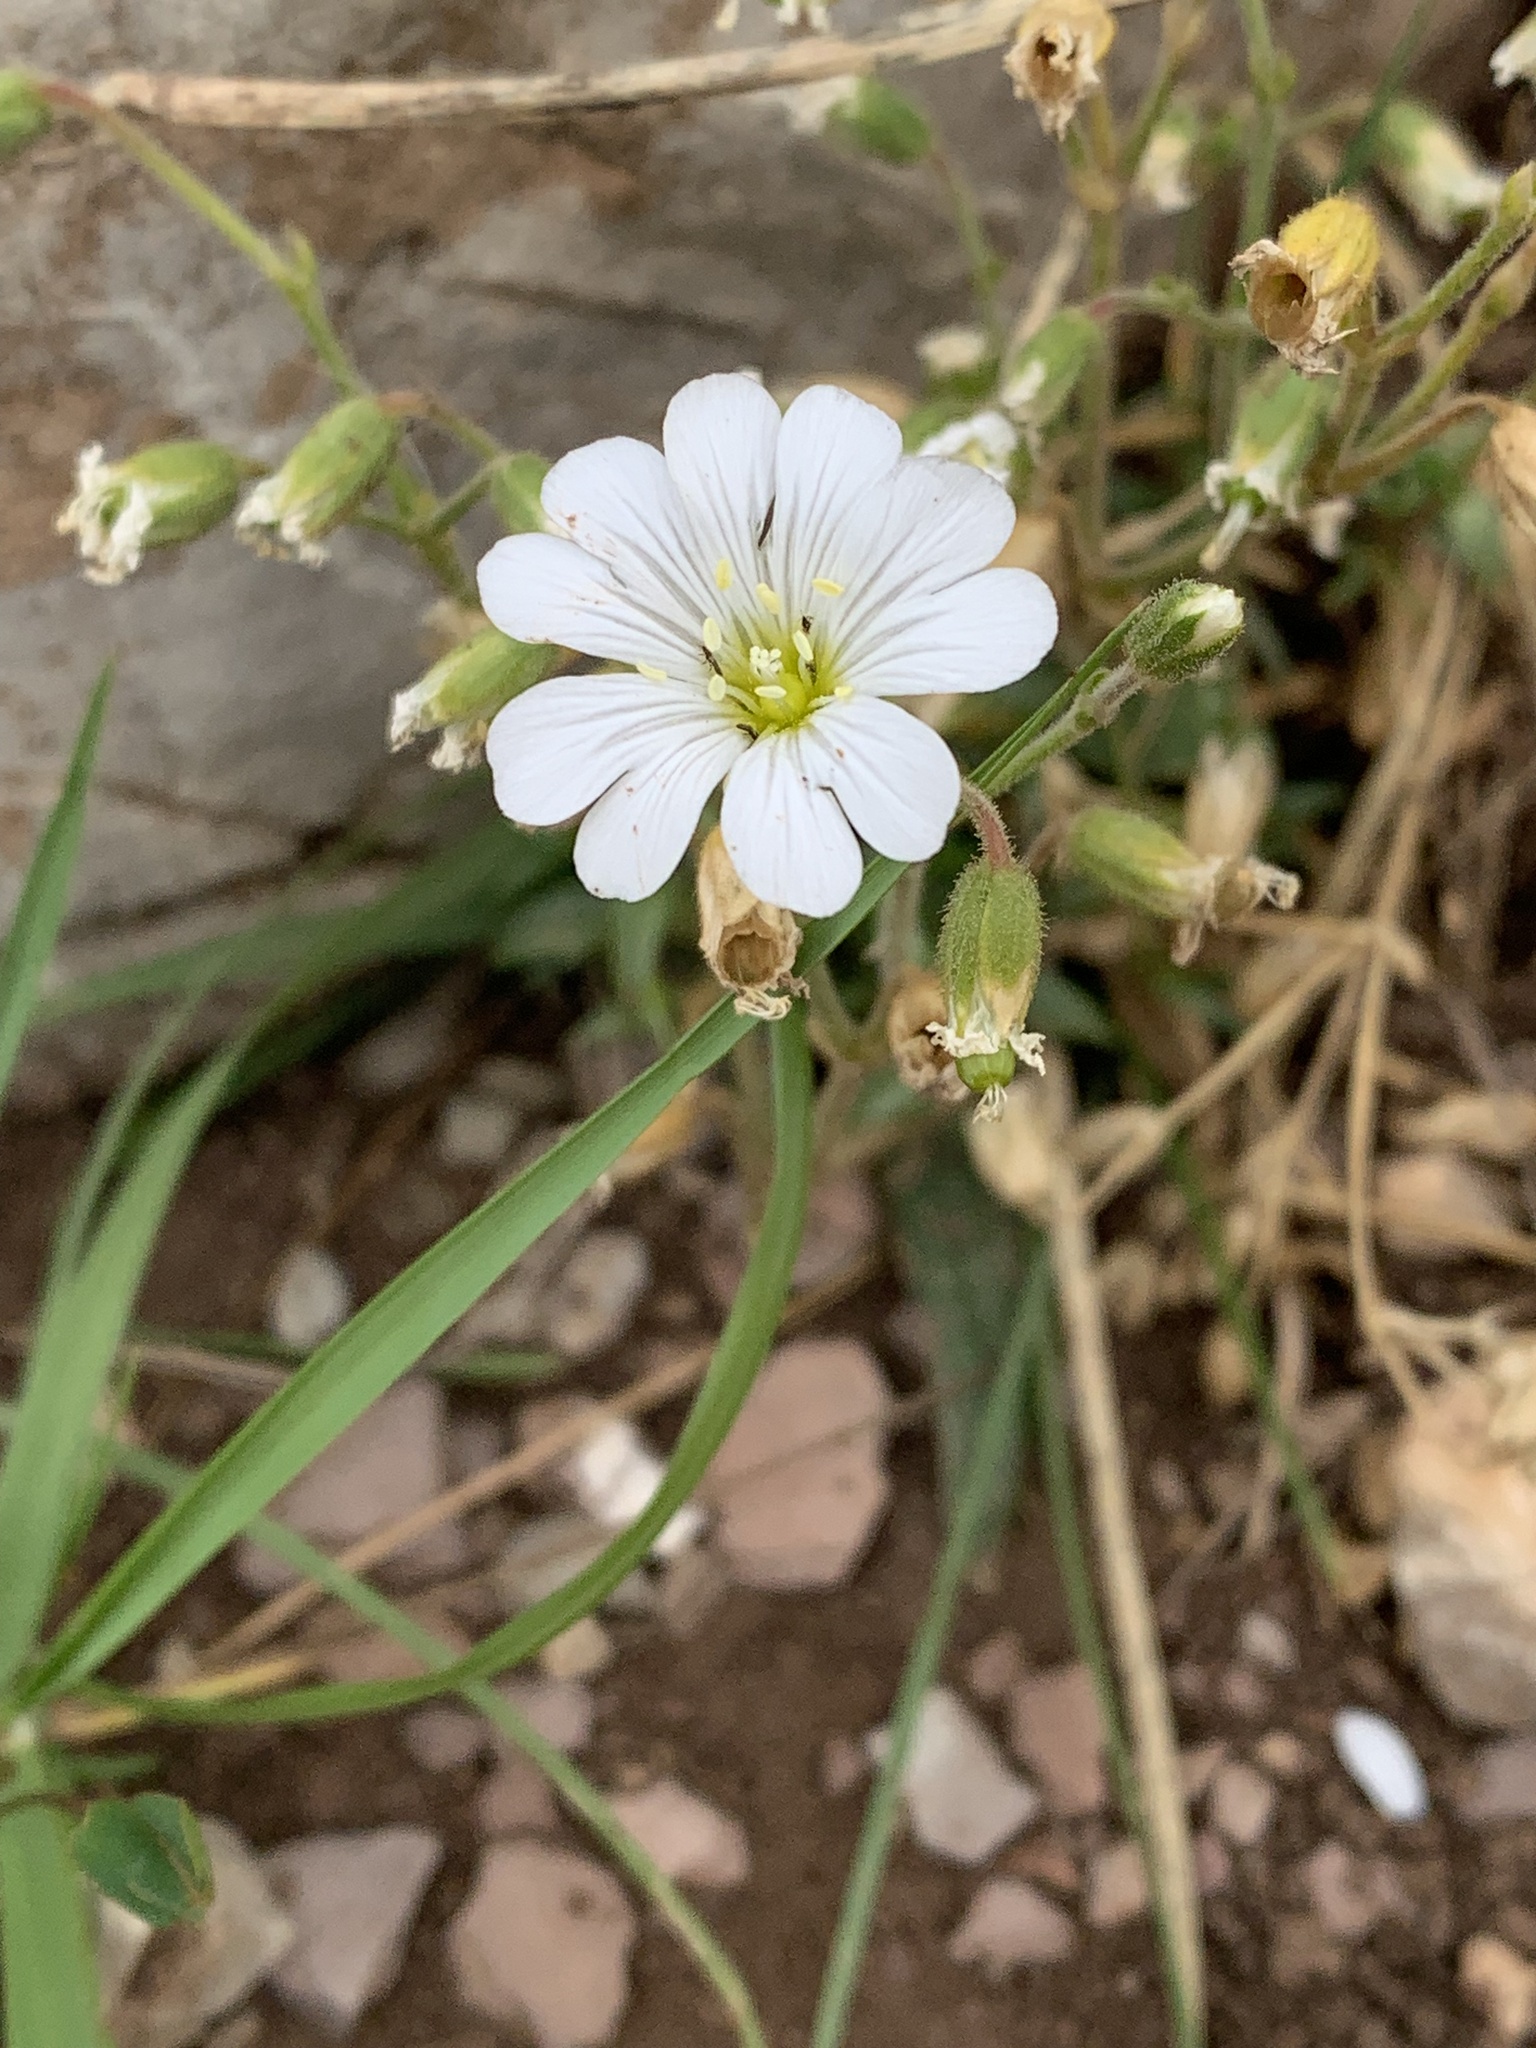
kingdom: Plantae
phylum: Tracheophyta
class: Magnoliopsida
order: Caryophyllales
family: Caryophyllaceae
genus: Rabelera
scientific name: Rabelera holostea
